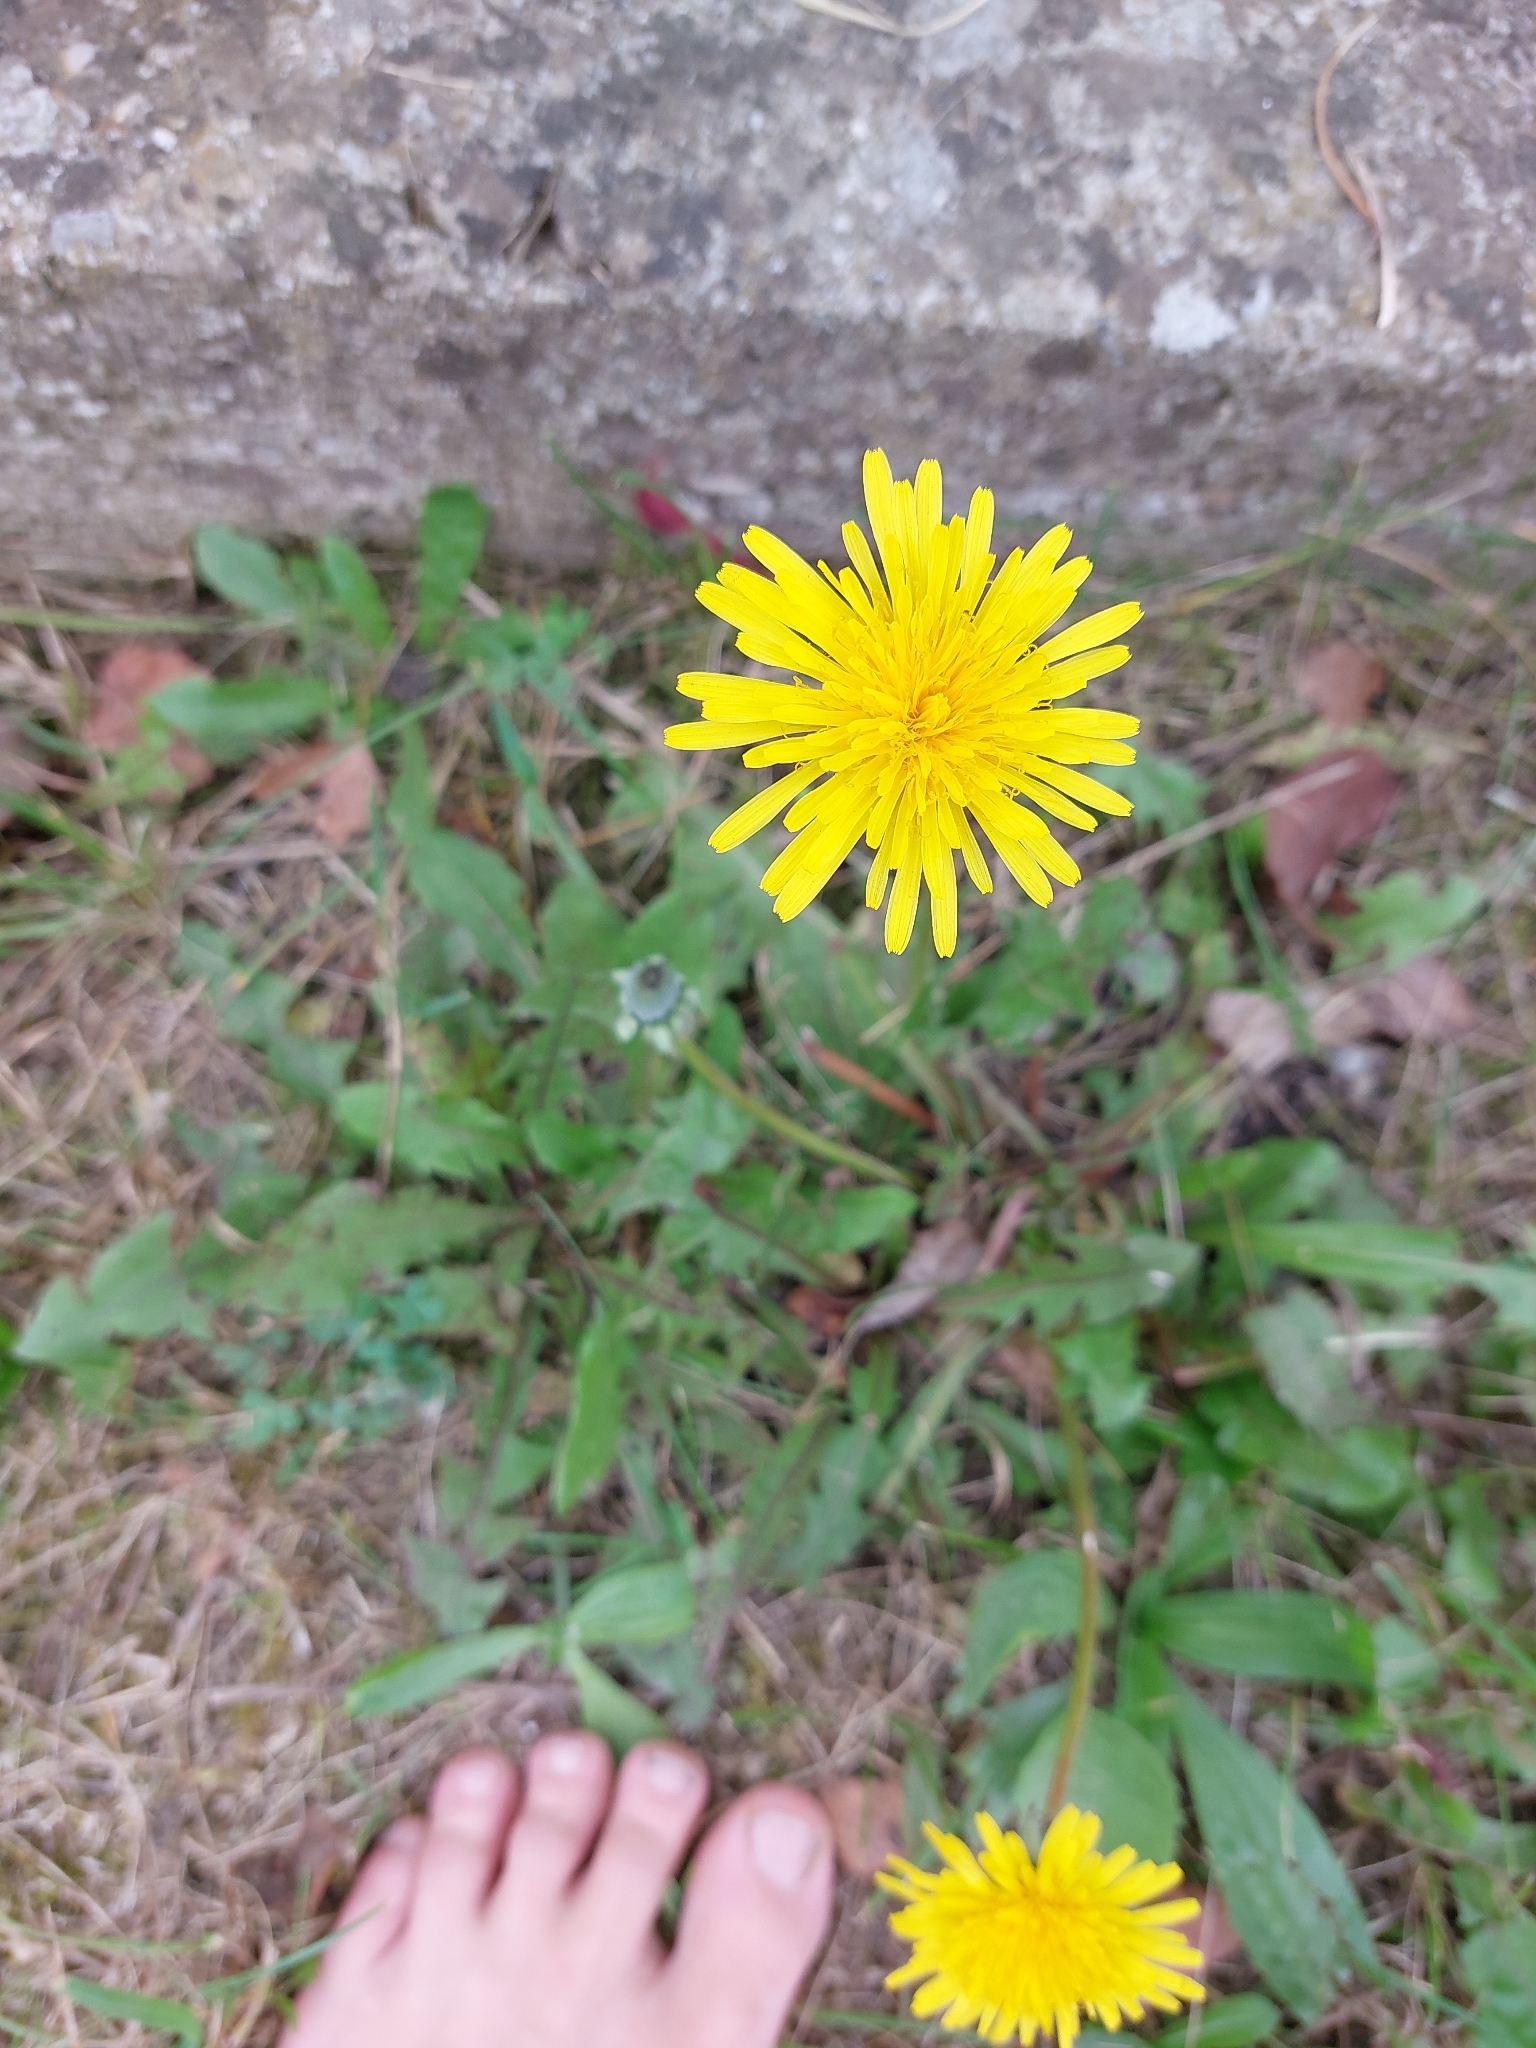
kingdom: Plantae
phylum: Tracheophyta
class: Magnoliopsida
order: Asterales
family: Asteraceae
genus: Taraxacum
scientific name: Taraxacum
